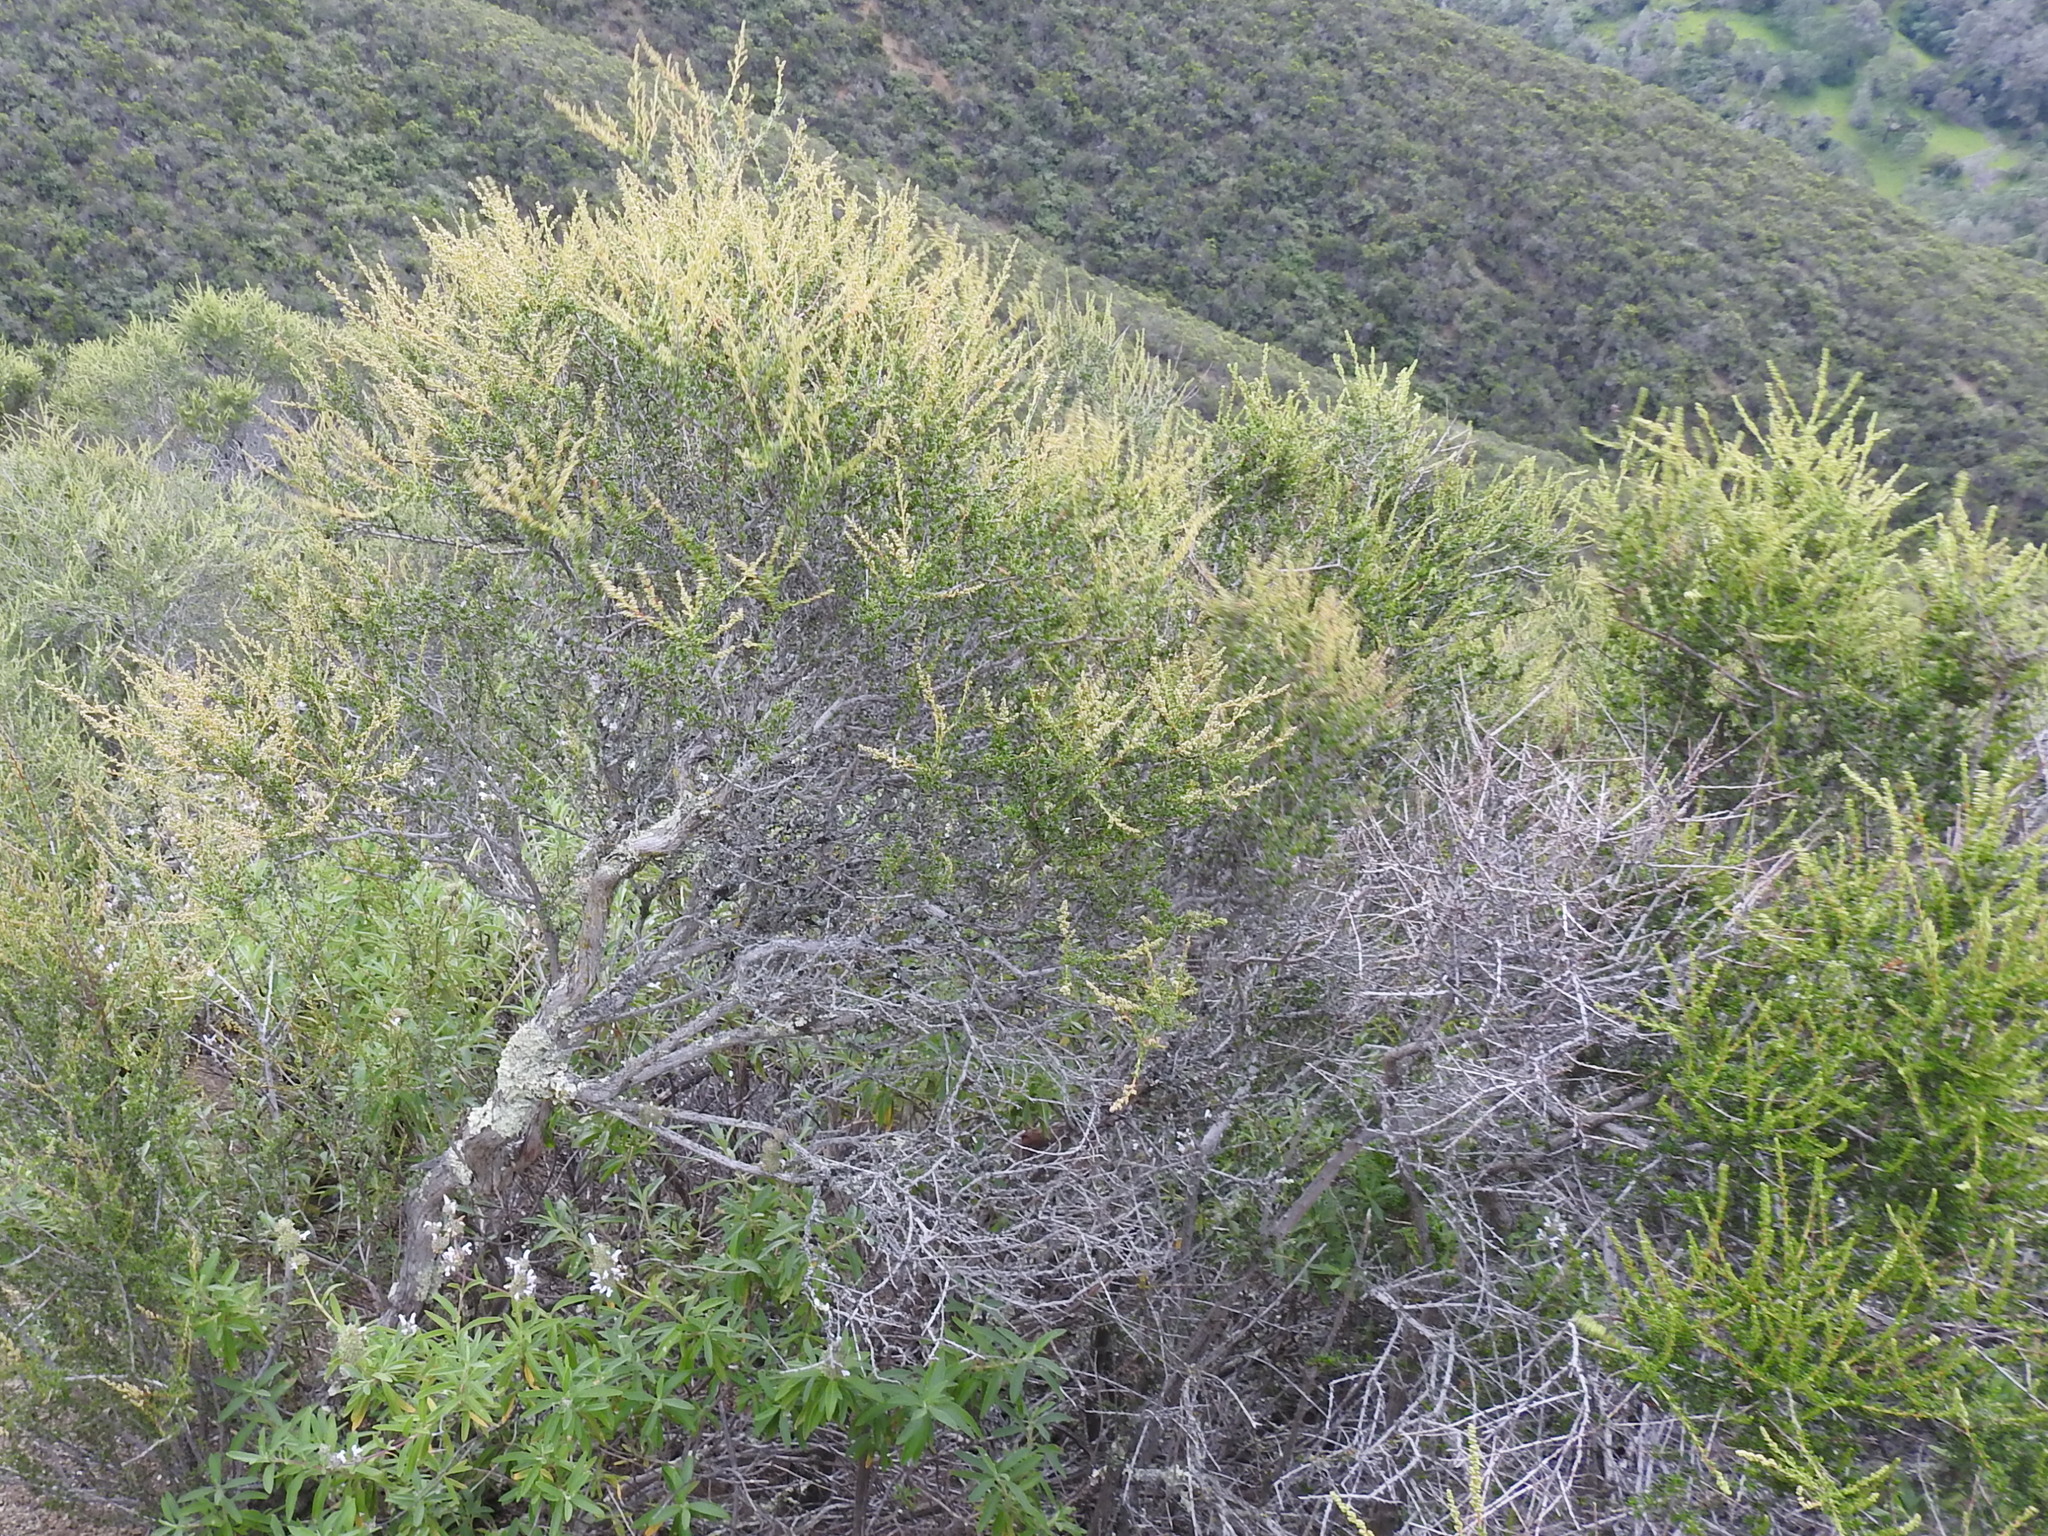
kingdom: Plantae
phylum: Tracheophyta
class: Magnoliopsida
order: Rosales
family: Rosaceae
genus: Adenostoma
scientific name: Adenostoma fasciculatum
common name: Chamise
